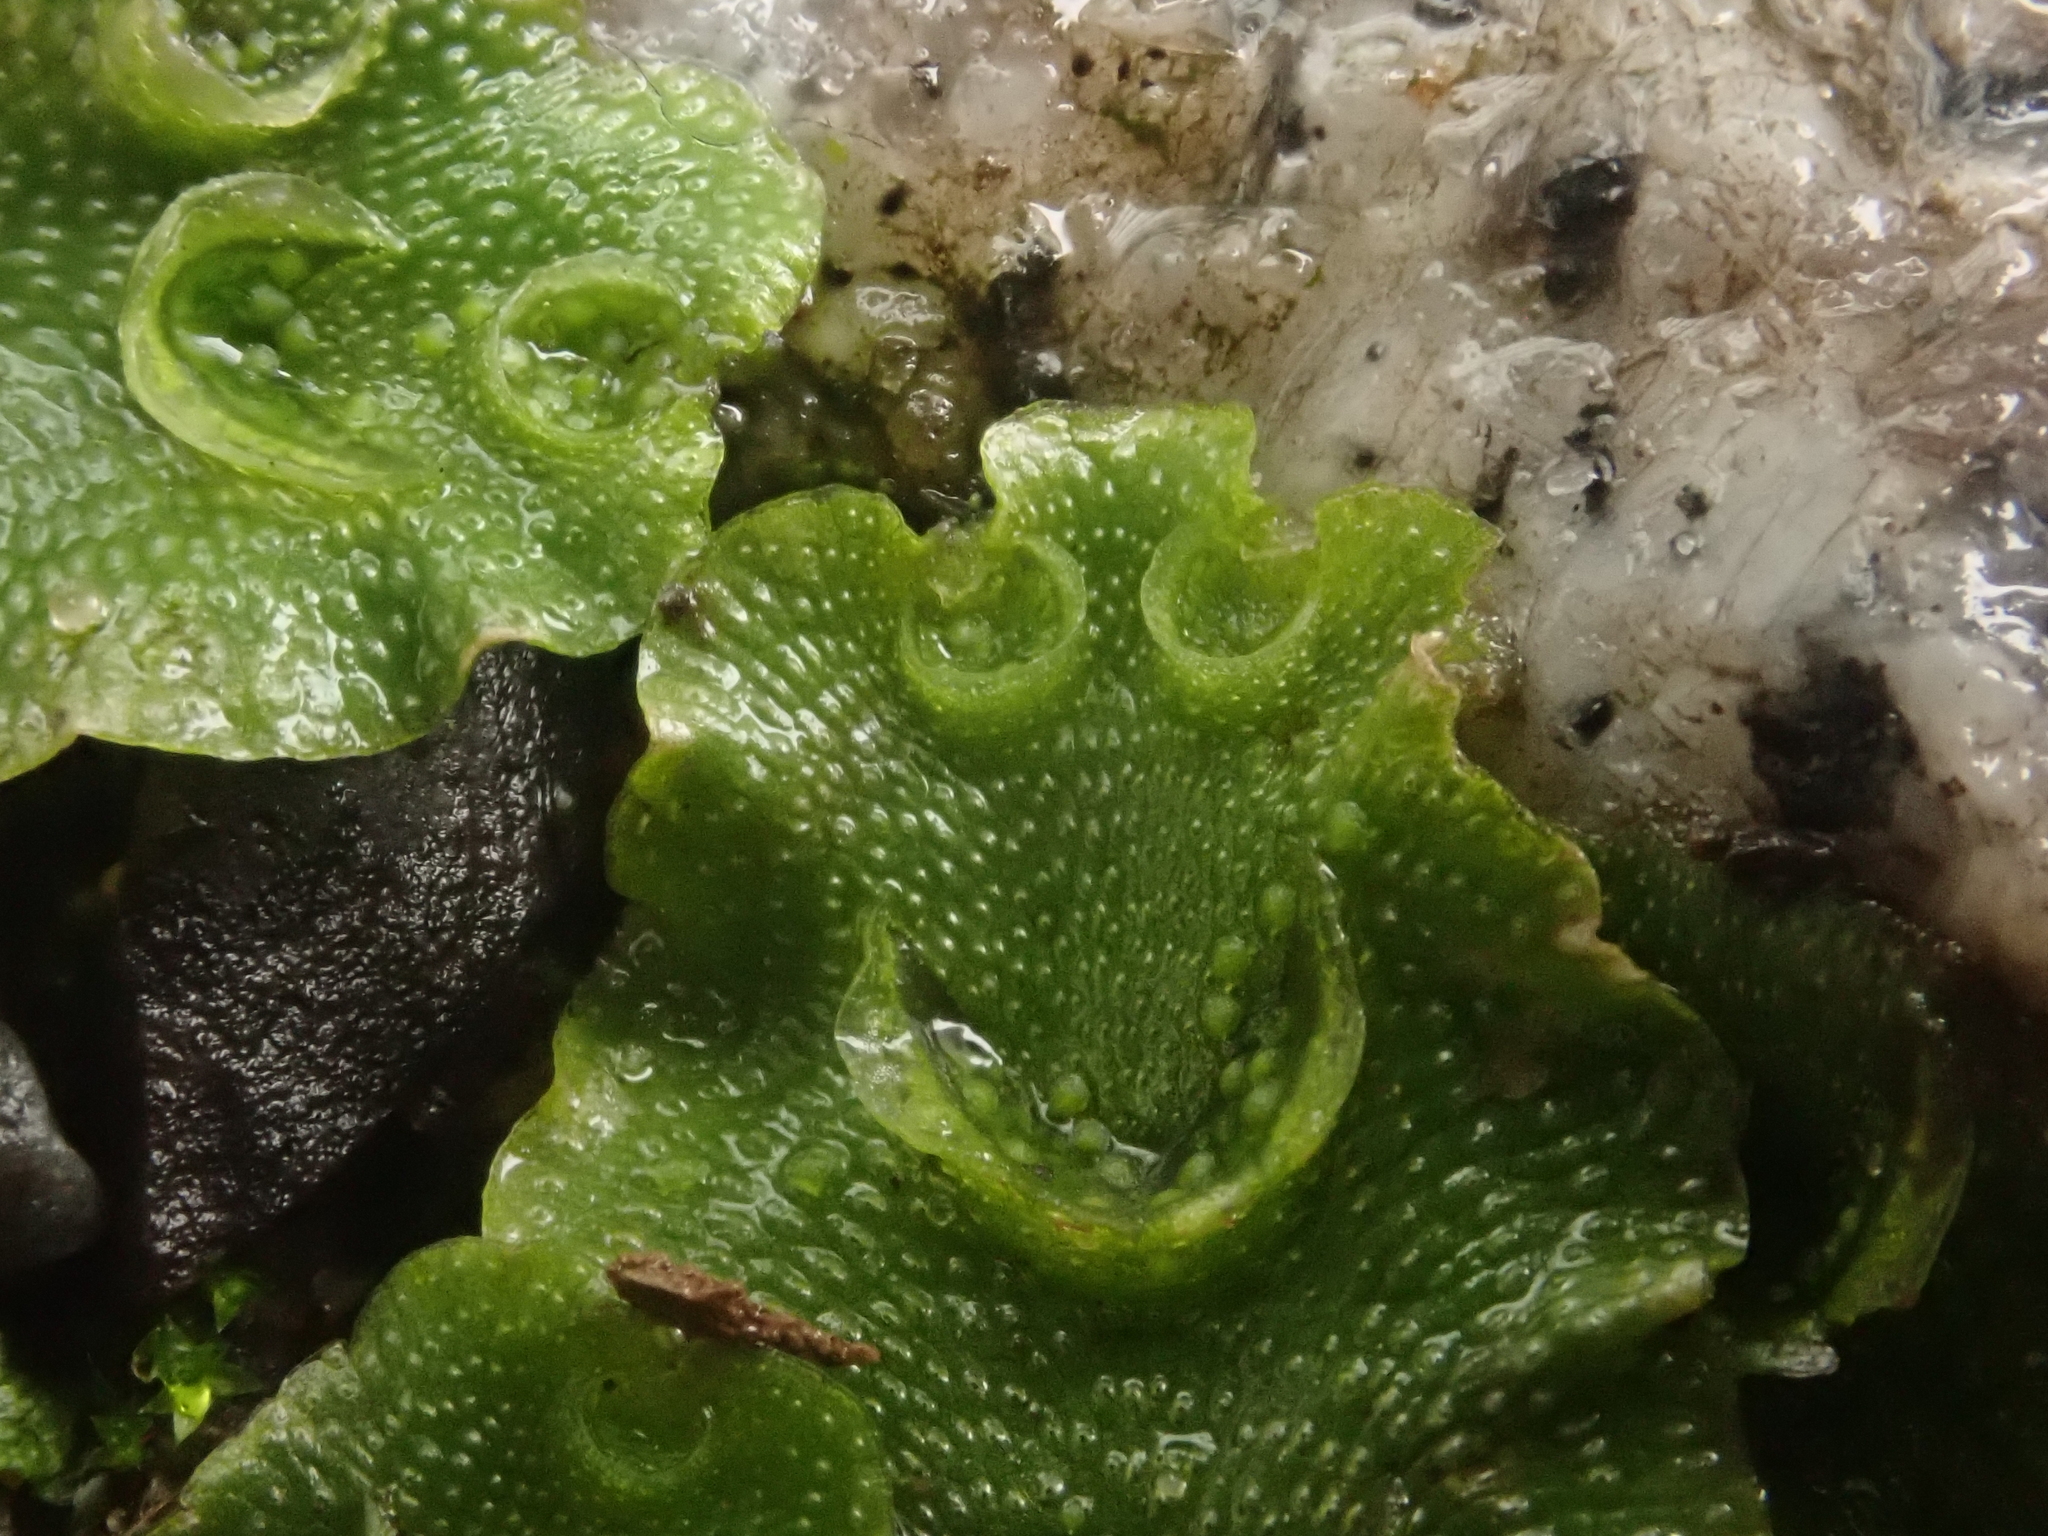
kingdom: Plantae
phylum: Marchantiophyta
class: Marchantiopsida
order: Lunulariales
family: Lunulariaceae
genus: Lunularia
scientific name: Lunularia cruciata
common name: Crescent-cup liverwort
